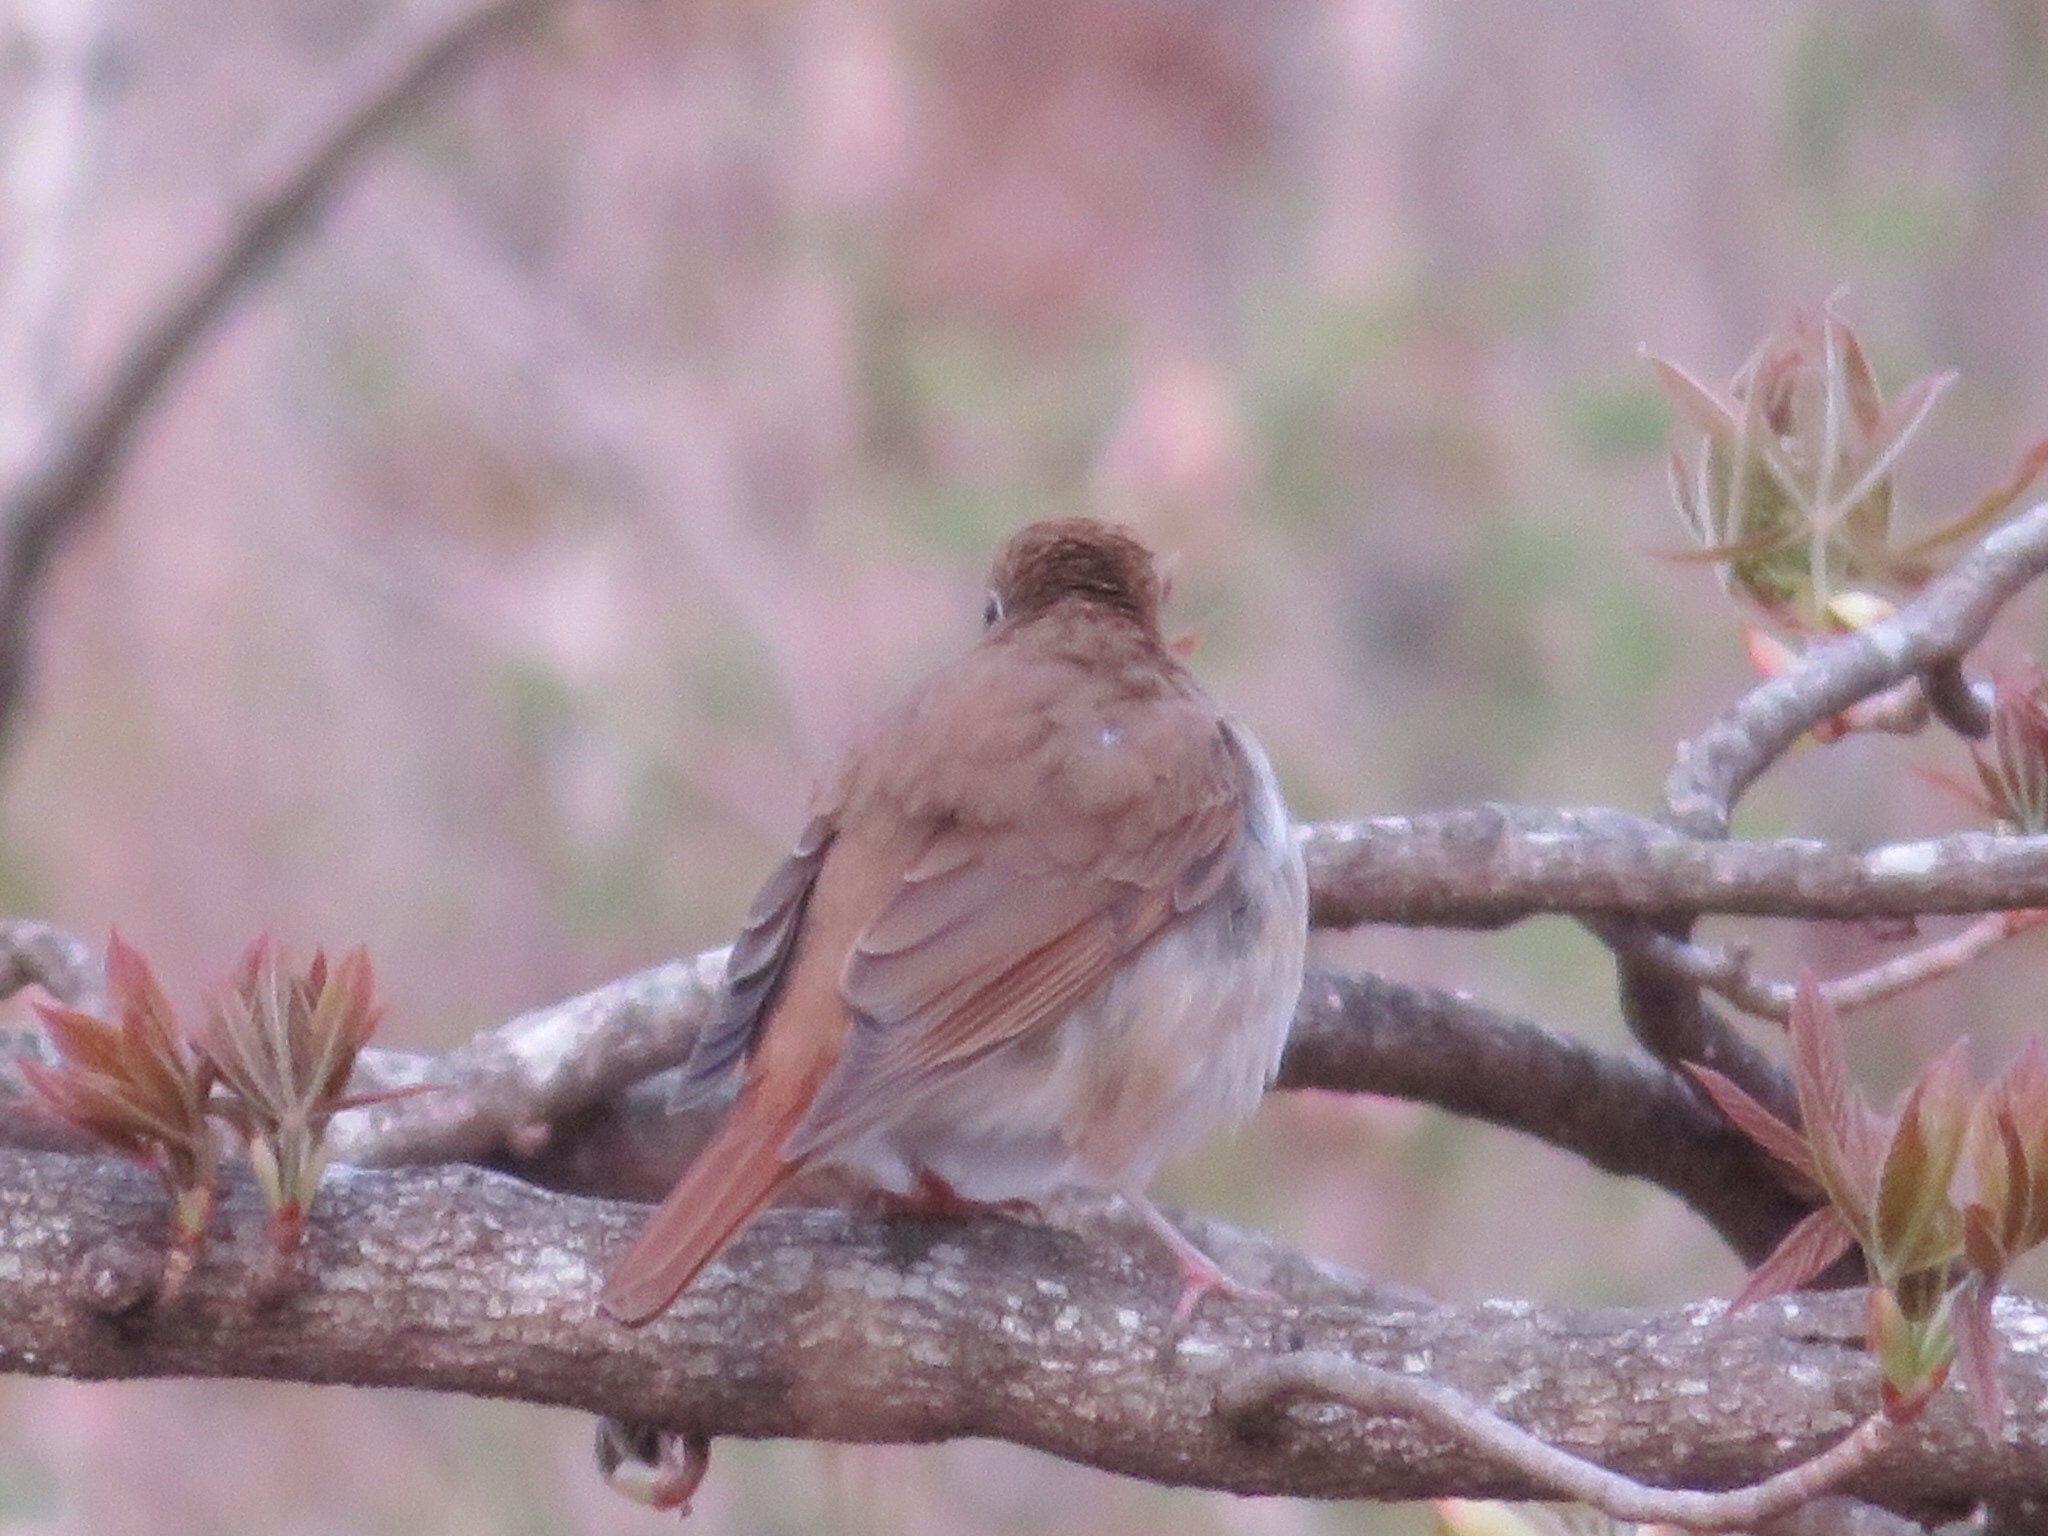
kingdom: Animalia
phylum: Chordata
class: Aves
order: Passeriformes
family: Turdidae
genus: Catharus
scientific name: Catharus guttatus
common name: Hermit thrush
